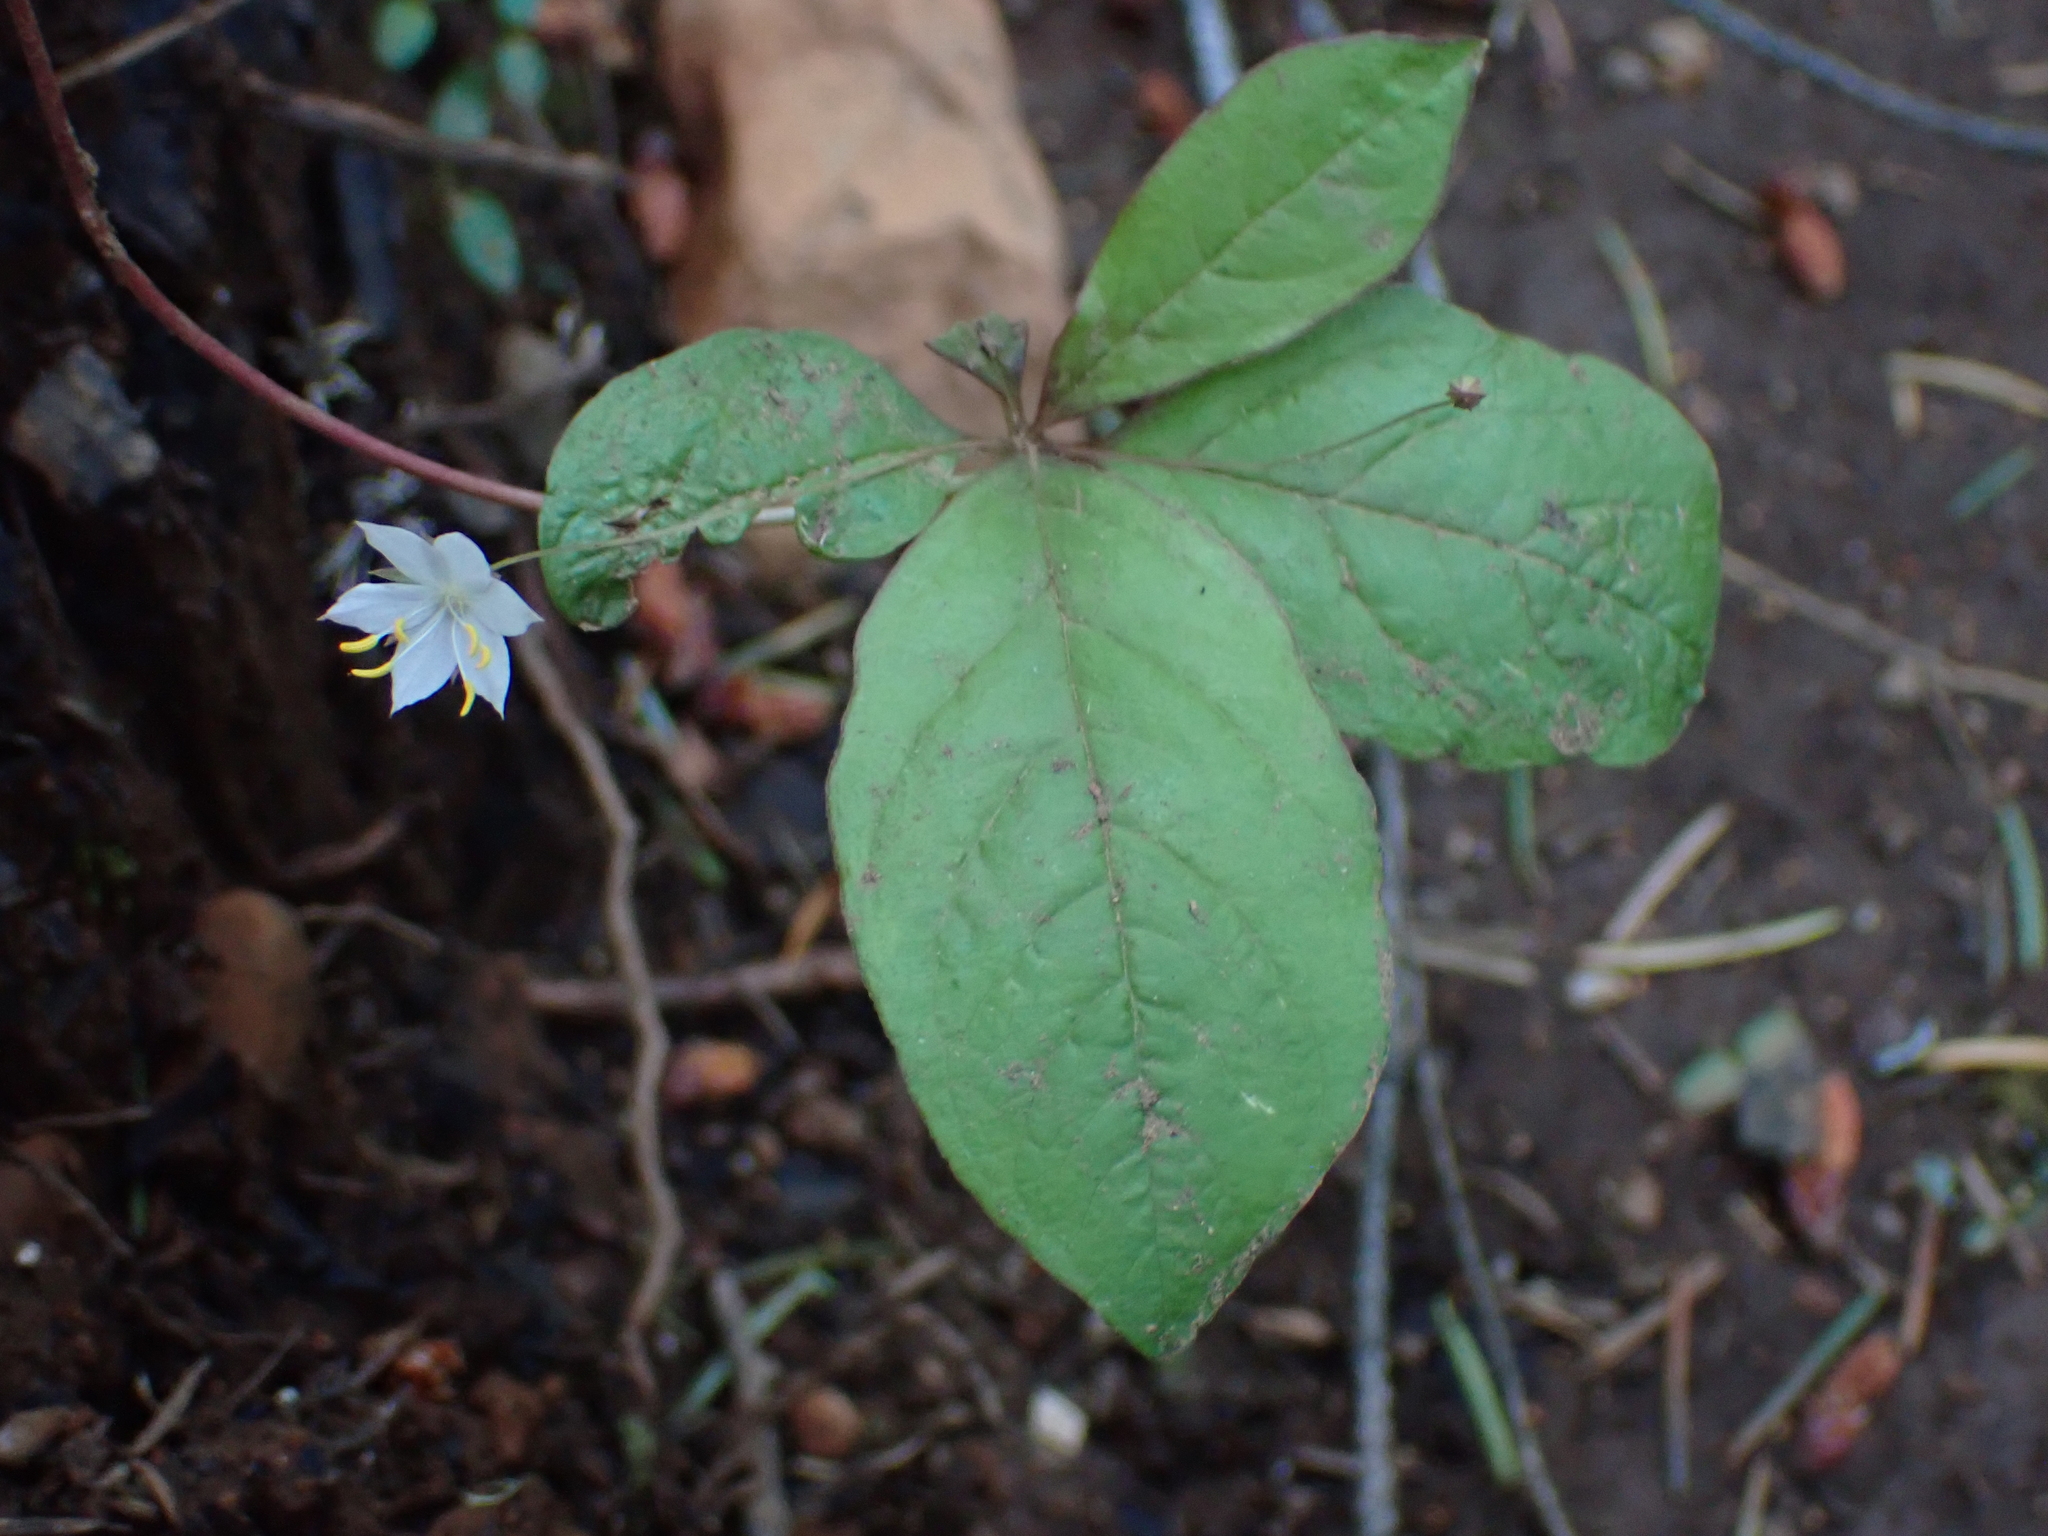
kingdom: Plantae
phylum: Tracheophyta
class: Magnoliopsida
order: Ericales
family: Primulaceae
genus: Lysimachia
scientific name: Lysimachia latifolia
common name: Pacific starflower
